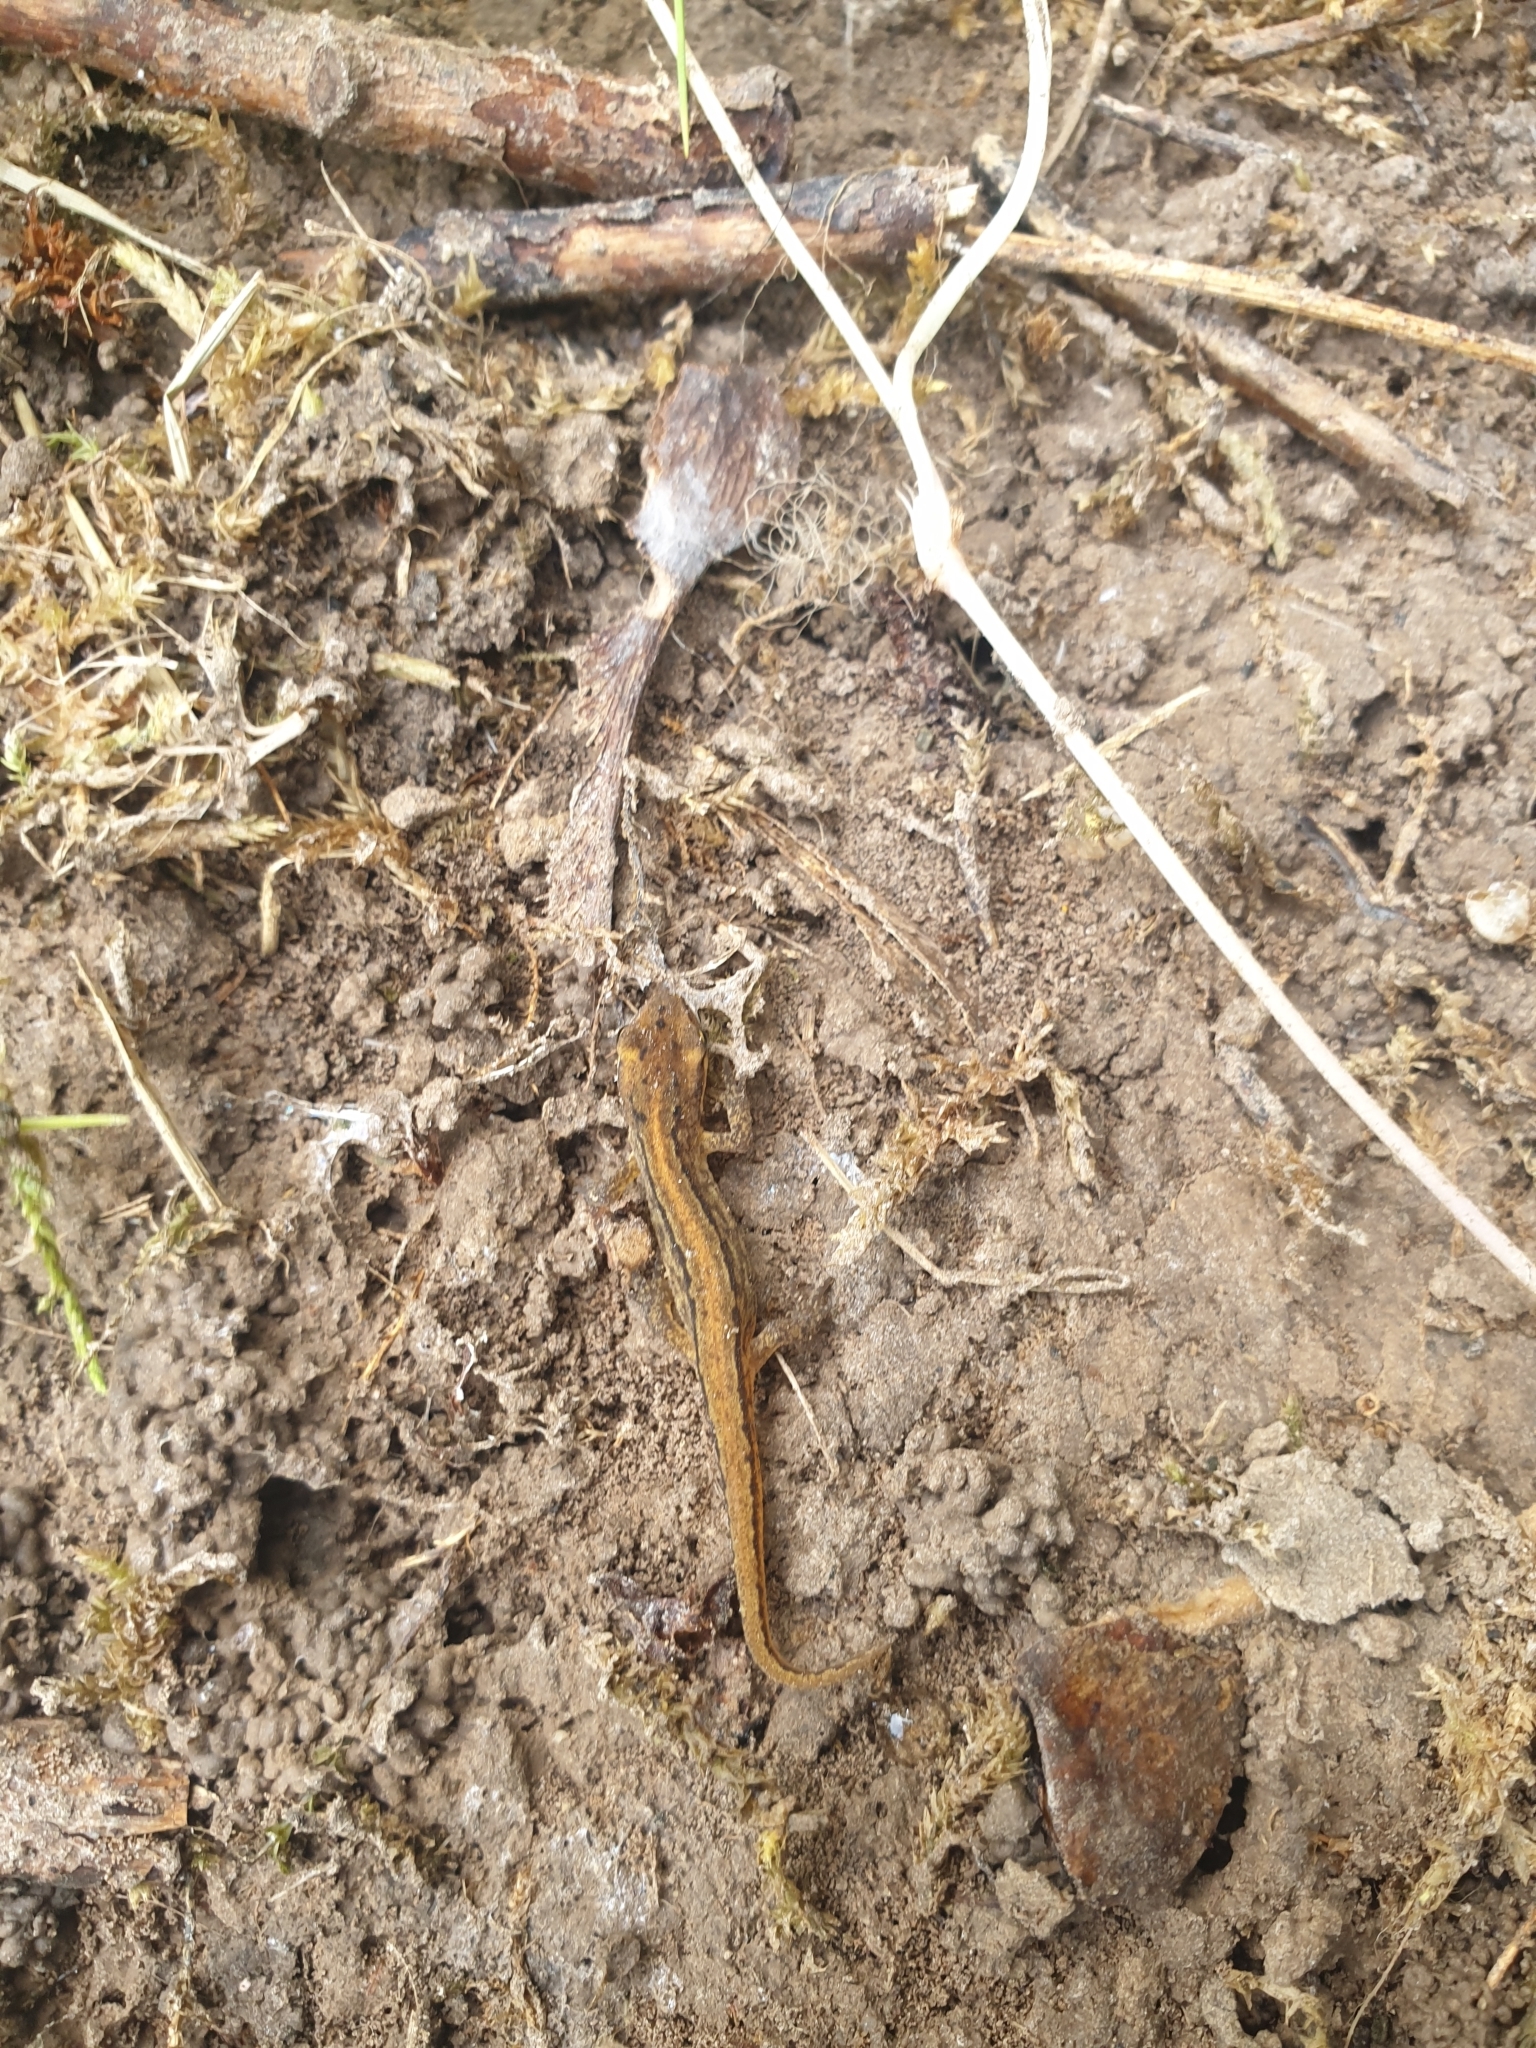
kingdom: Animalia
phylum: Chordata
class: Amphibia
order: Caudata
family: Salamandridae
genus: Lissotriton
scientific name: Lissotriton vulgaris
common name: Smooth newt
